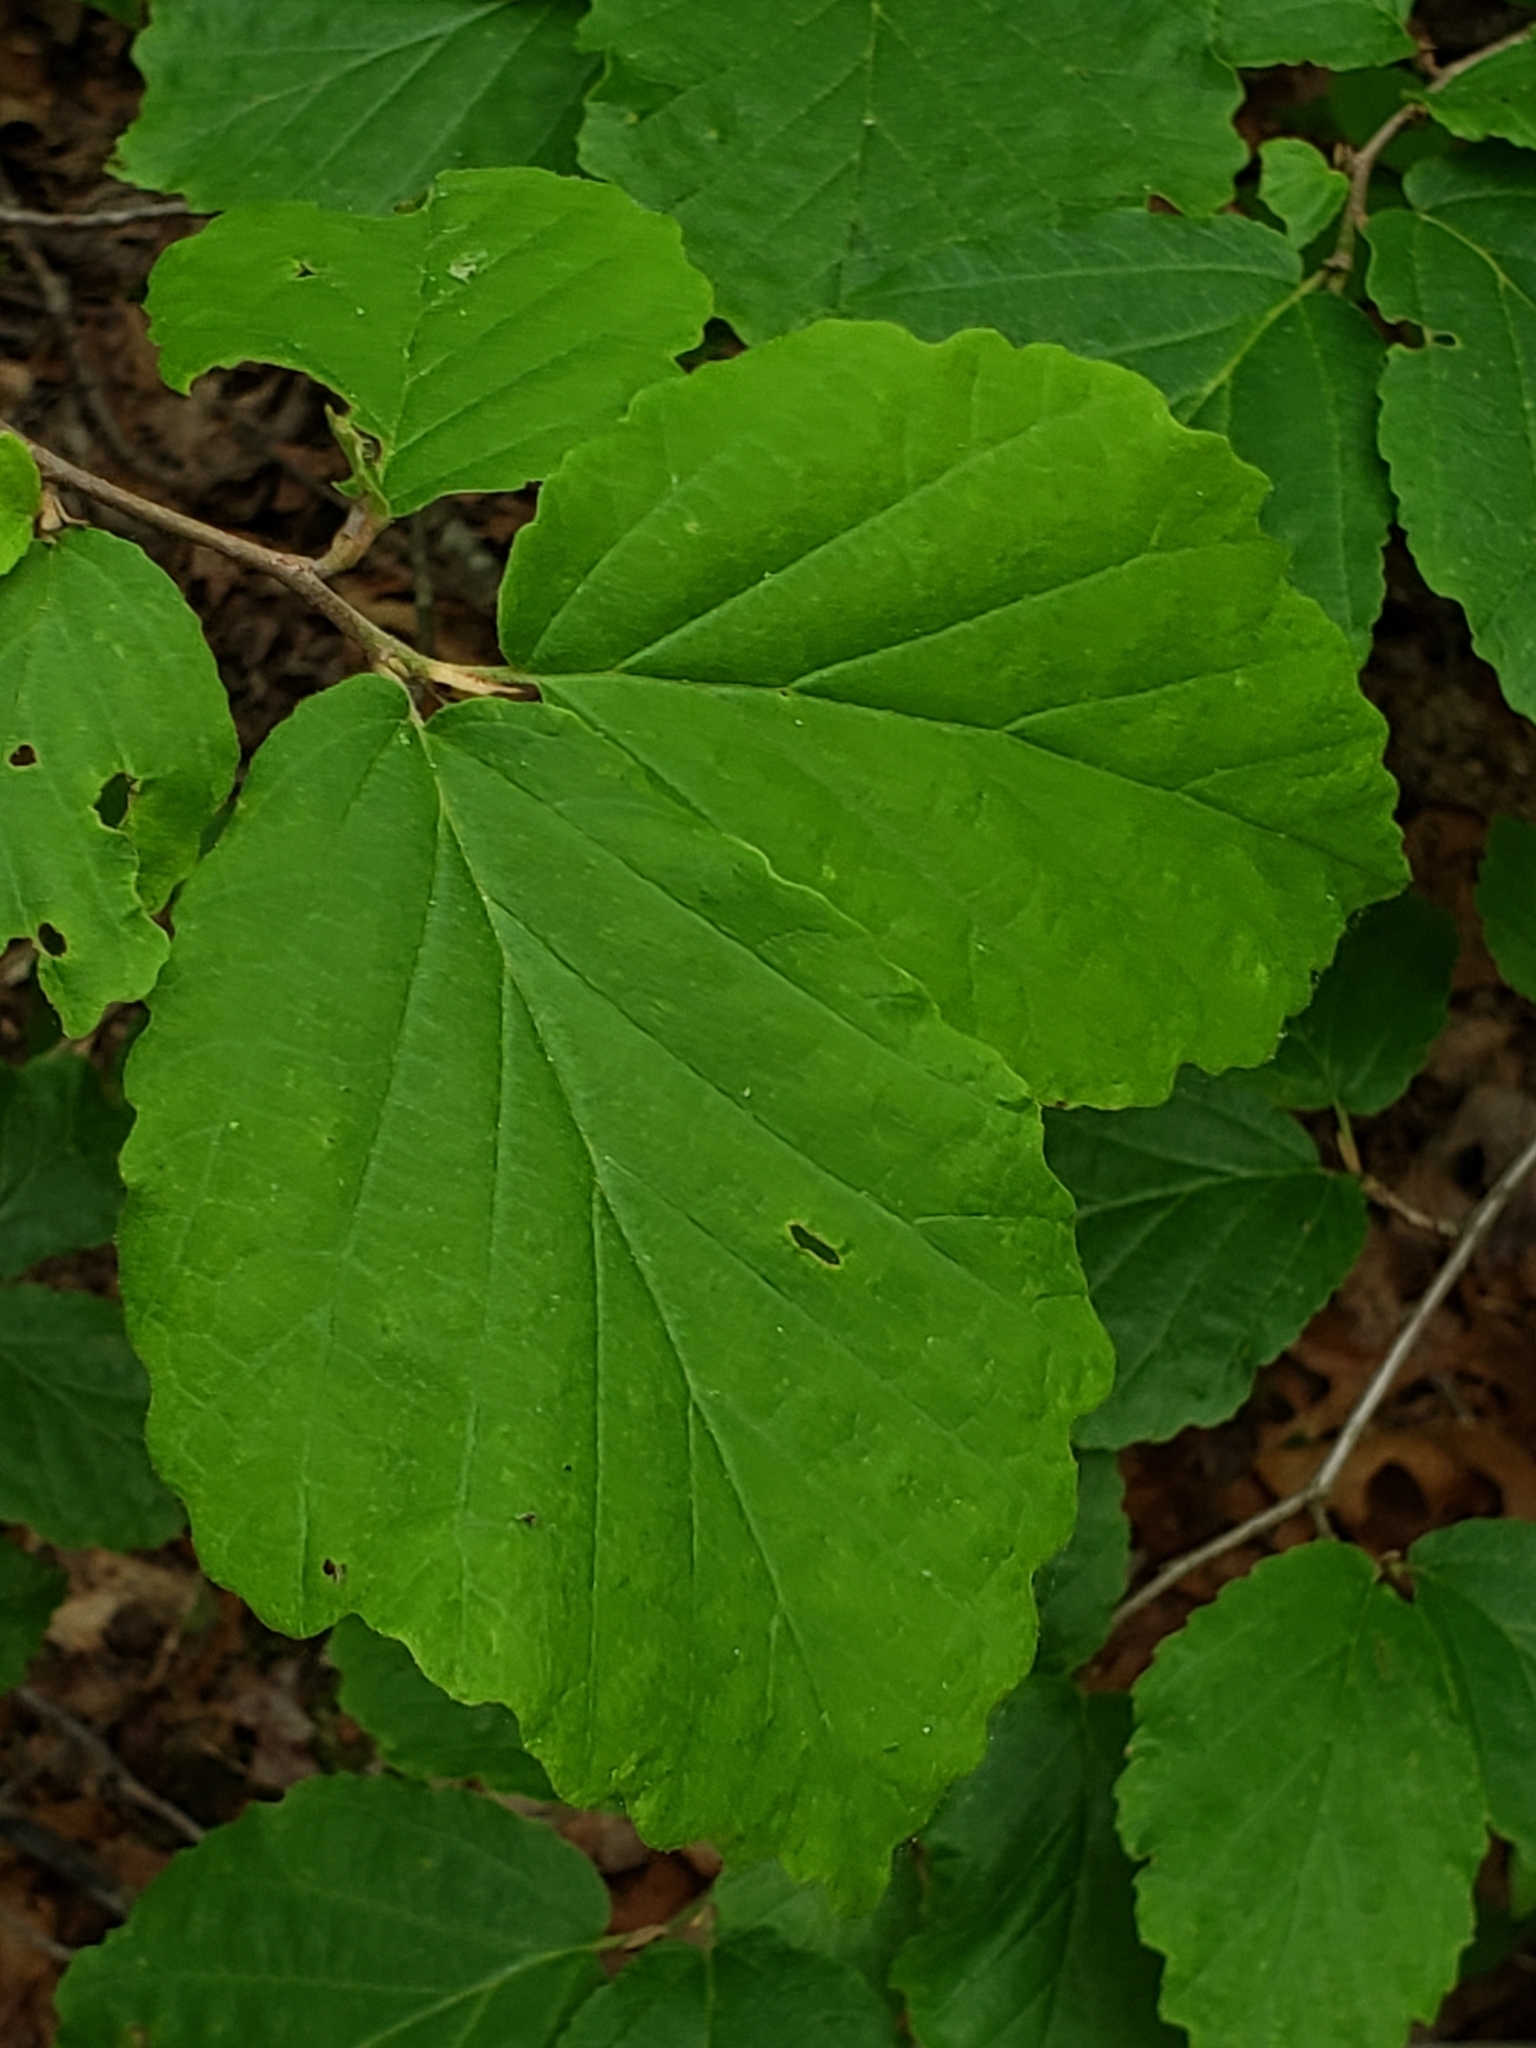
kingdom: Plantae
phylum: Tracheophyta
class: Magnoliopsida
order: Saxifragales
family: Hamamelidaceae
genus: Hamamelis
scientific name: Hamamelis virginiana
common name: Witch-hazel
